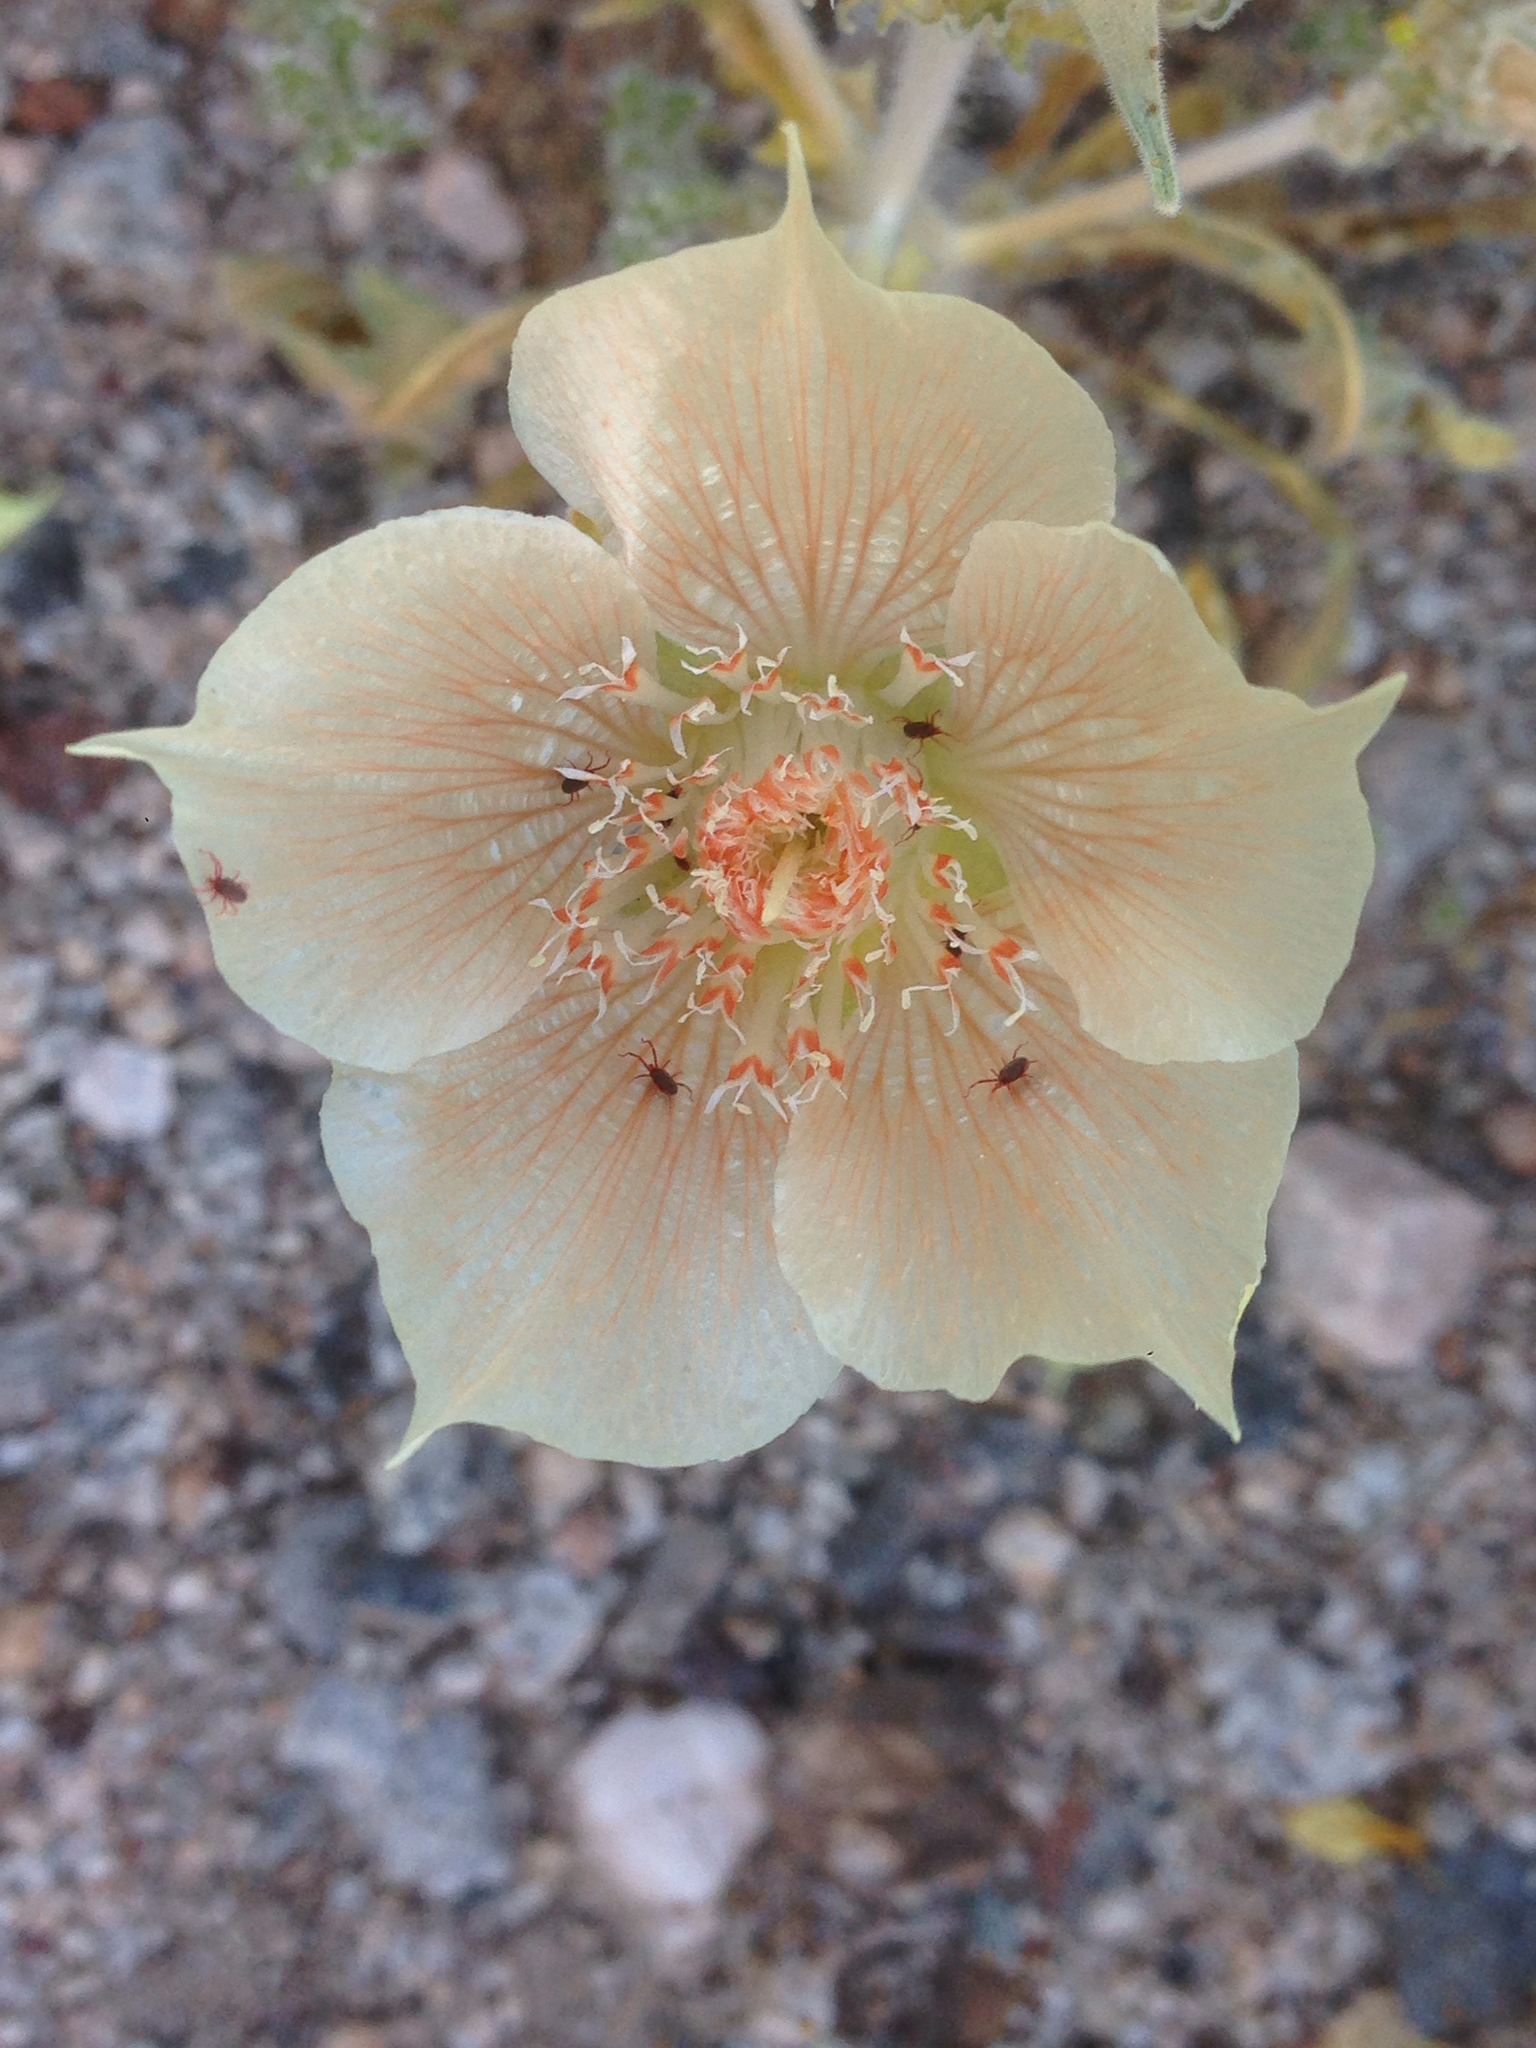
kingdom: Plantae
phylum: Tracheophyta
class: Magnoliopsida
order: Cornales
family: Loasaceae
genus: Mentzelia
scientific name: Mentzelia involucrata
